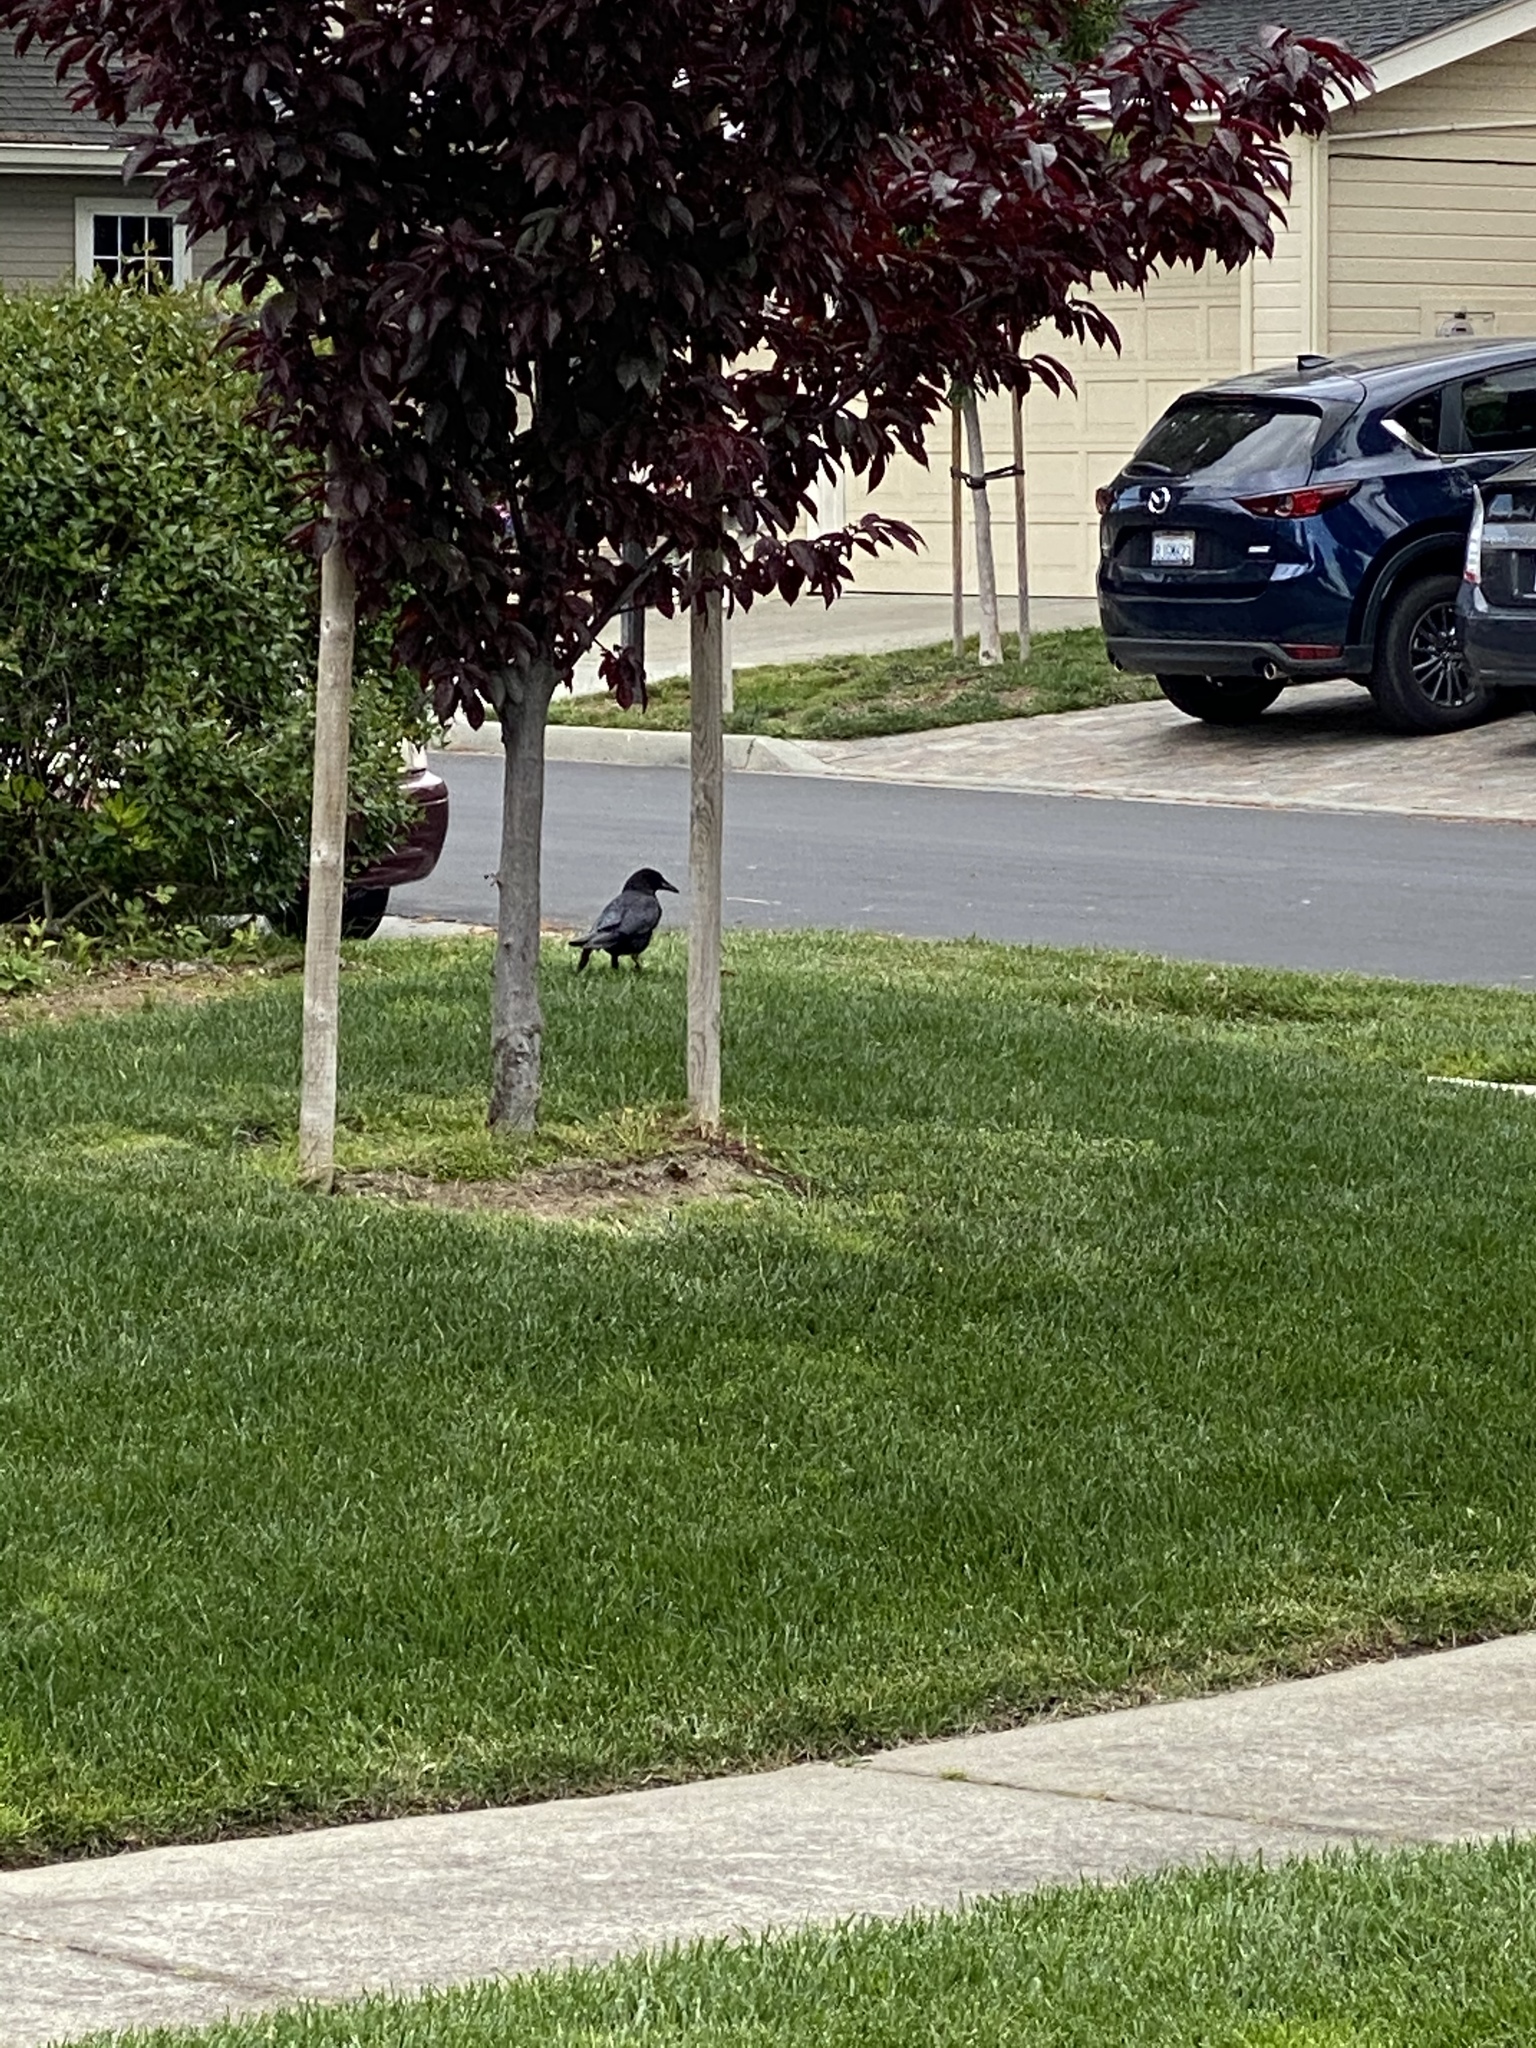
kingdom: Animalia
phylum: Chordata
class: Aves
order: Passeriformes
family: Corvidae
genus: Corvus
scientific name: Corvus brachyrhynchos
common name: American crow
